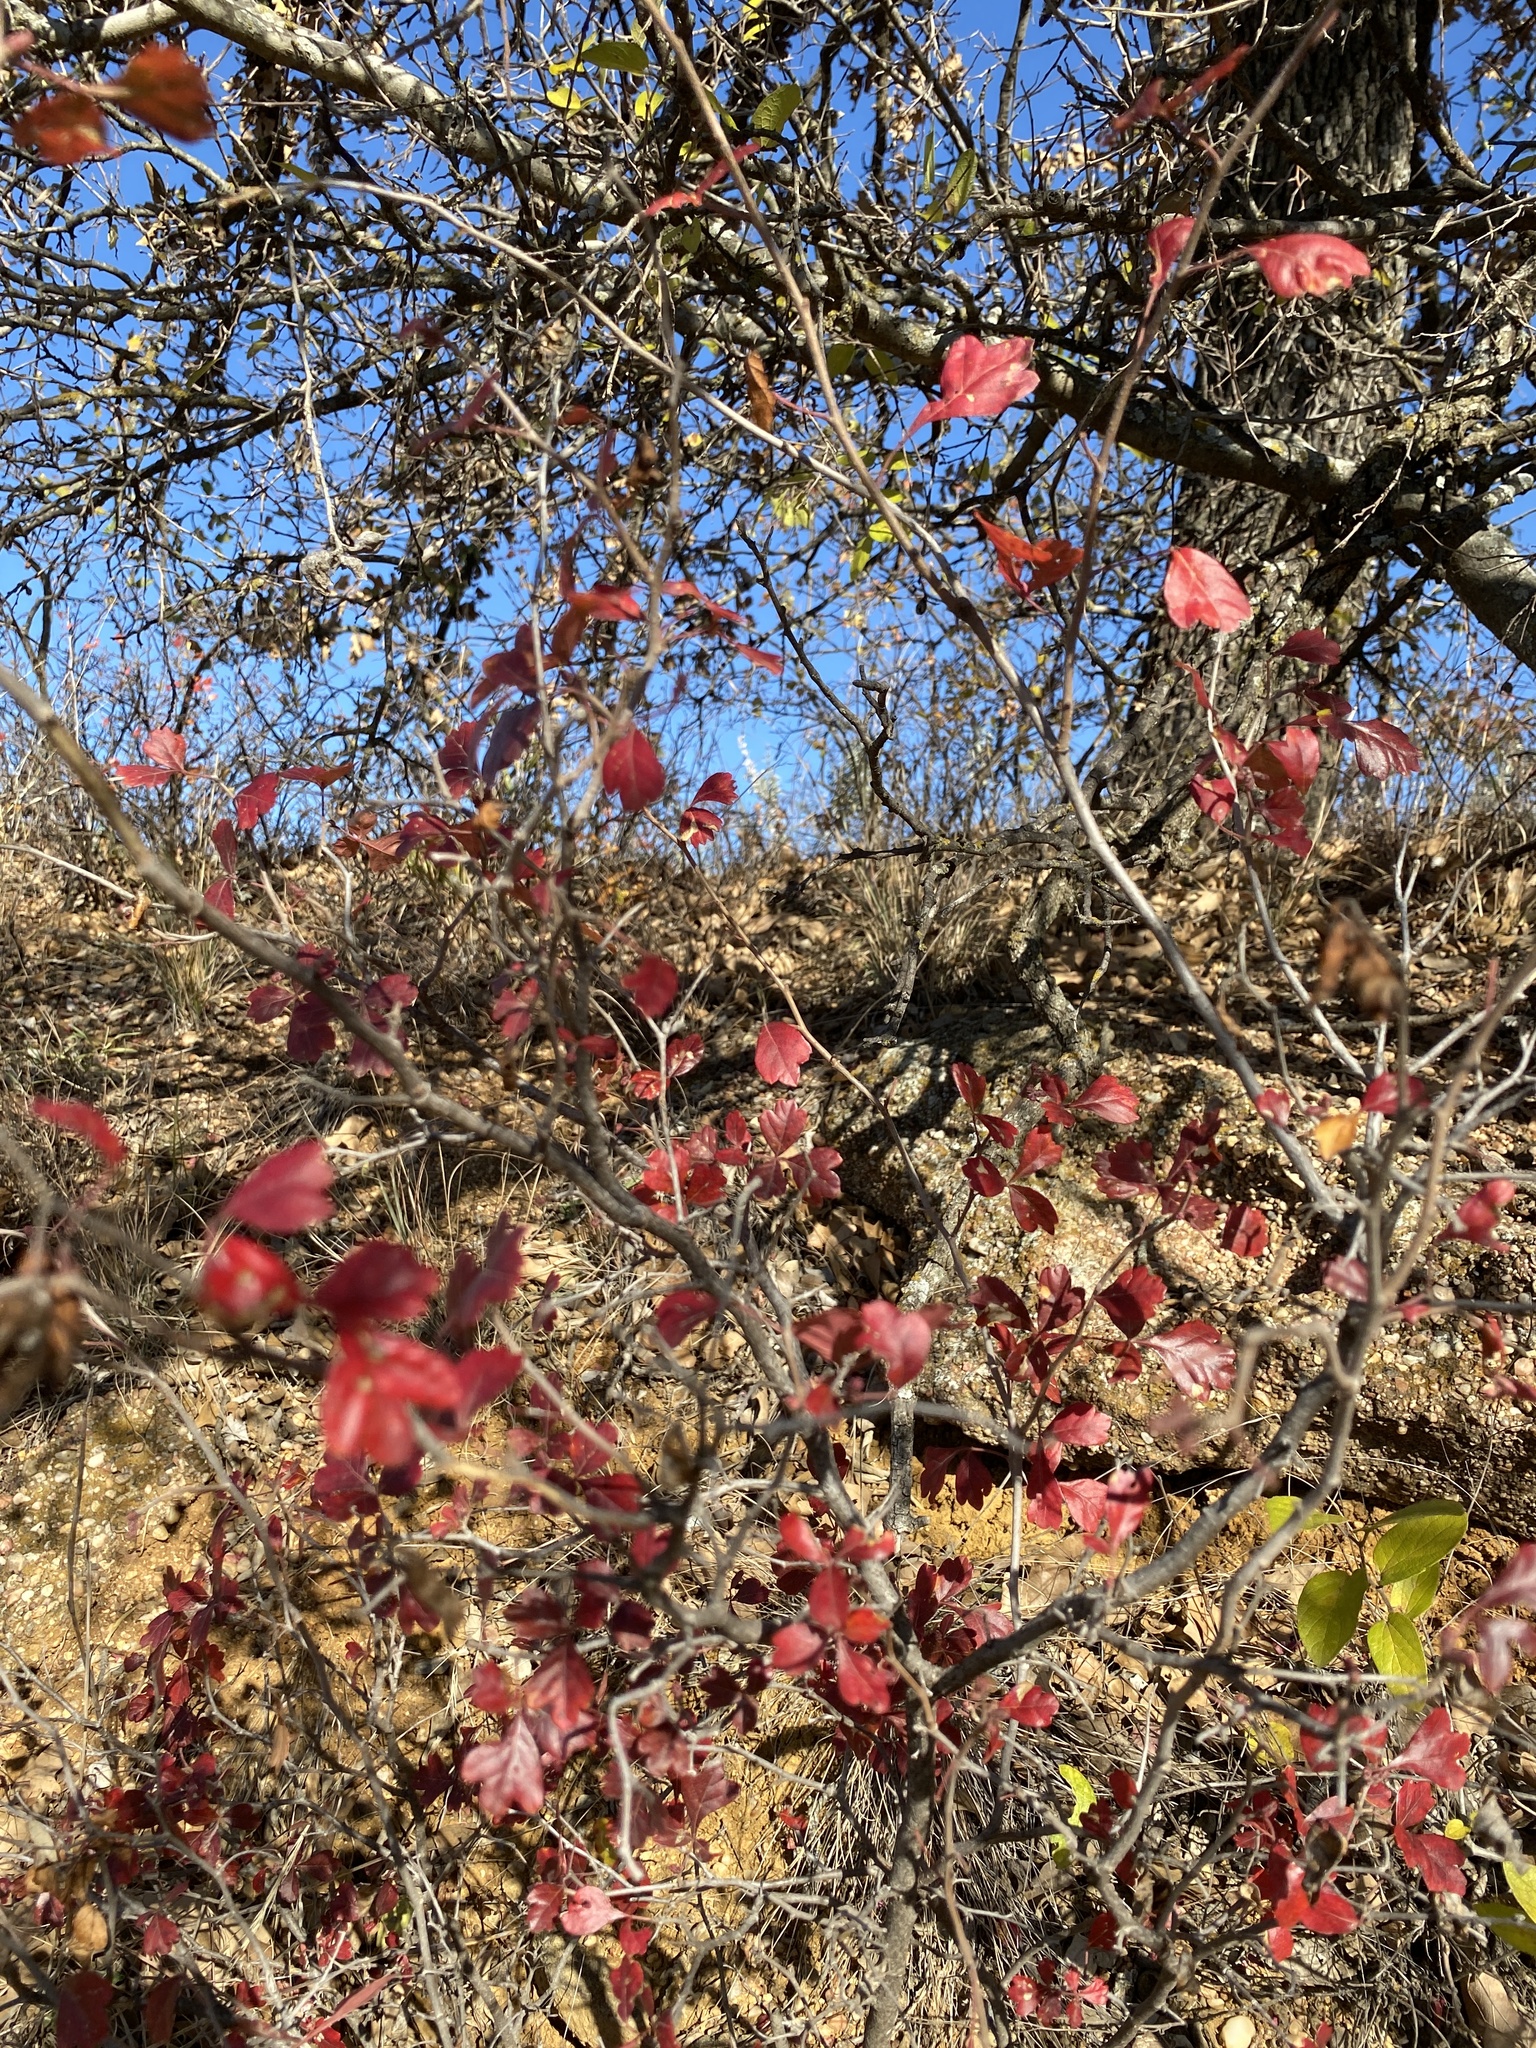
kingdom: Plantae
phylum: Tracheophyta
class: Magnoliopsida
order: Sapindales
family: Anacardiaceae
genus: Rhus
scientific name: Rhus aromatica
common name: Aromatic sumac
